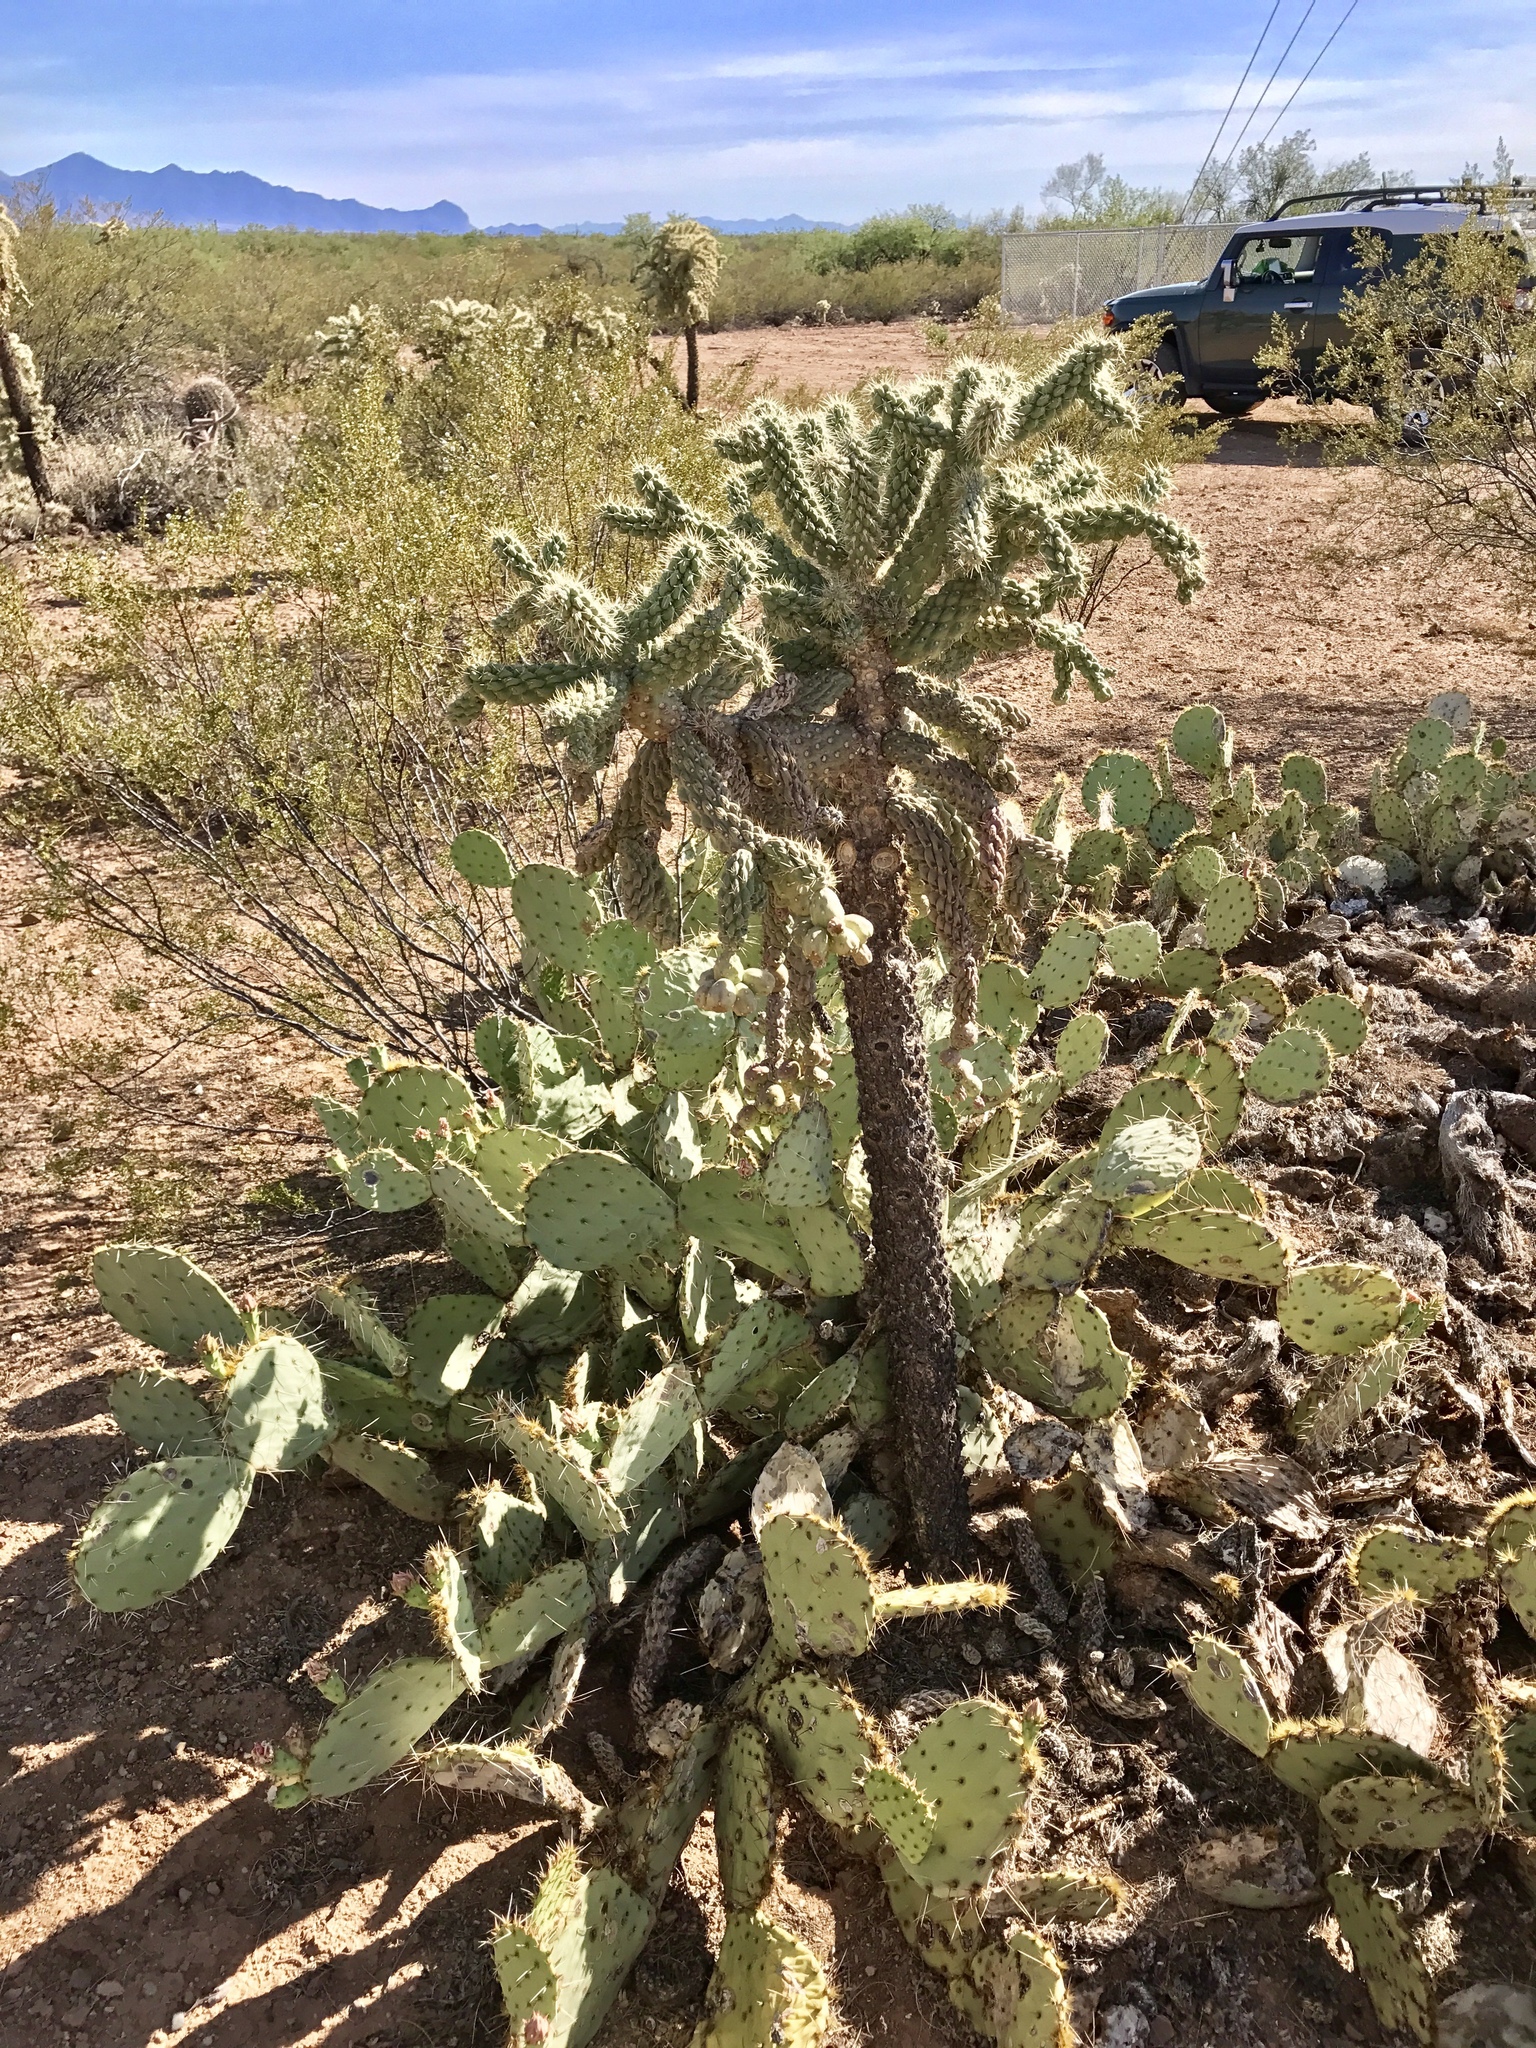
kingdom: Plantae
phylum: Tracheophyta
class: Magnoliopsida
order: Caryophyllales
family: Cactaceae
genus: Cylindropuntia
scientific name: Cylindropuntia fulgida
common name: Jumping cholla
